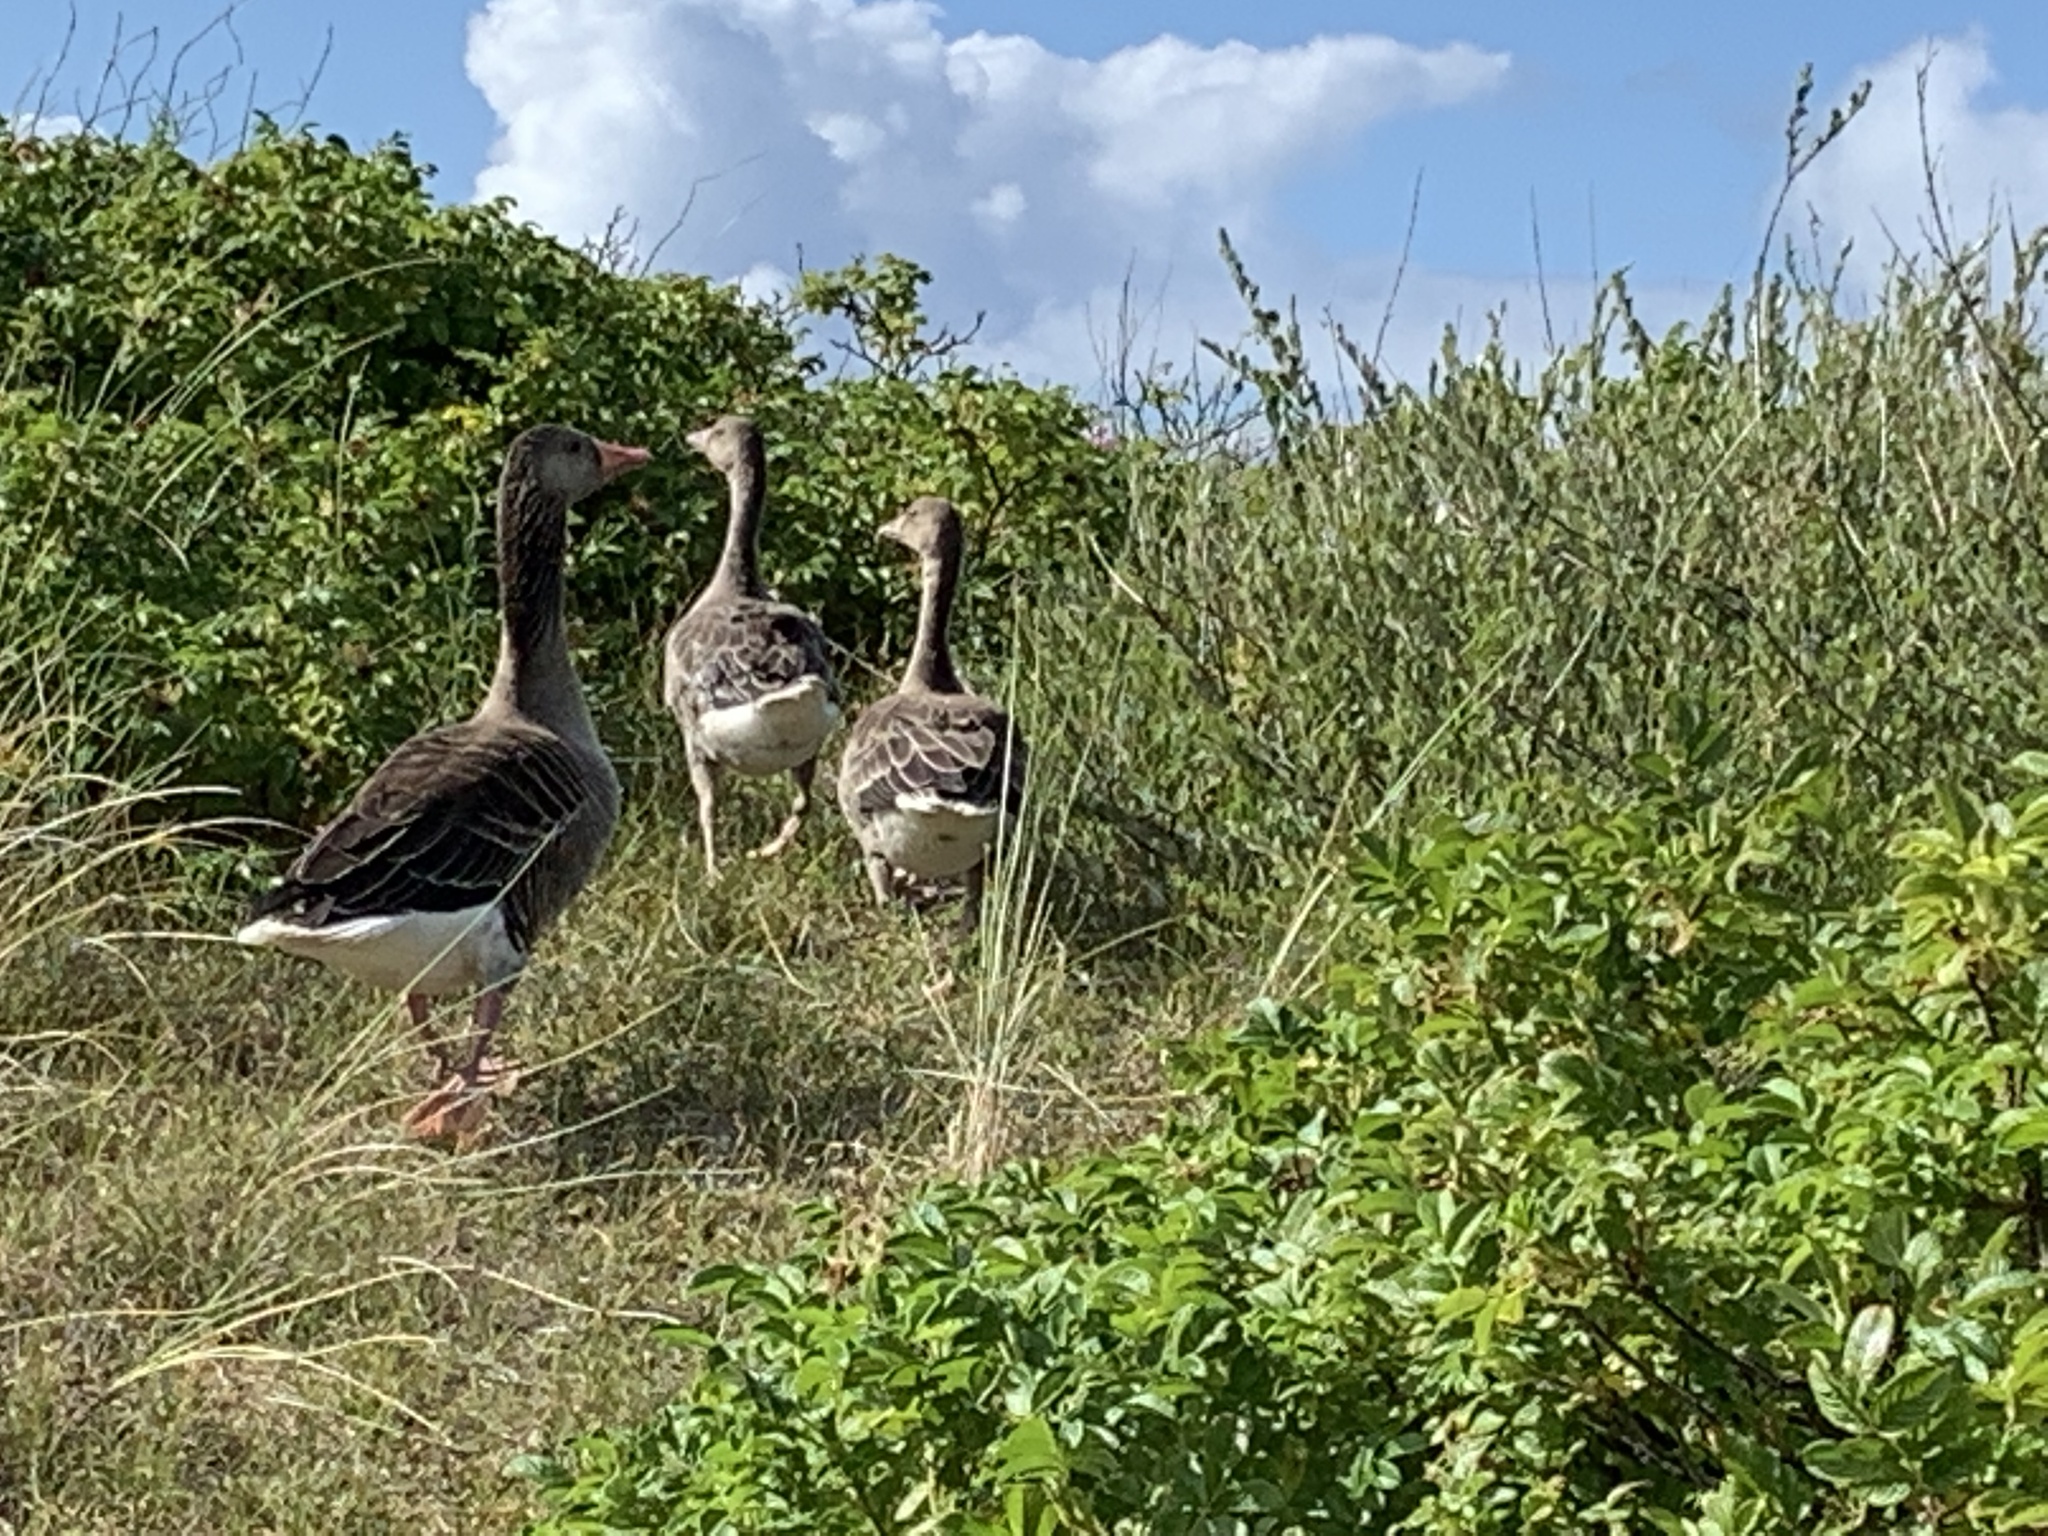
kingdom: Animalia
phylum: Chordata
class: Aves
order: Anseriformes
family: Anatidae
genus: Anser
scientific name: Anser anser
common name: Greylag goose
